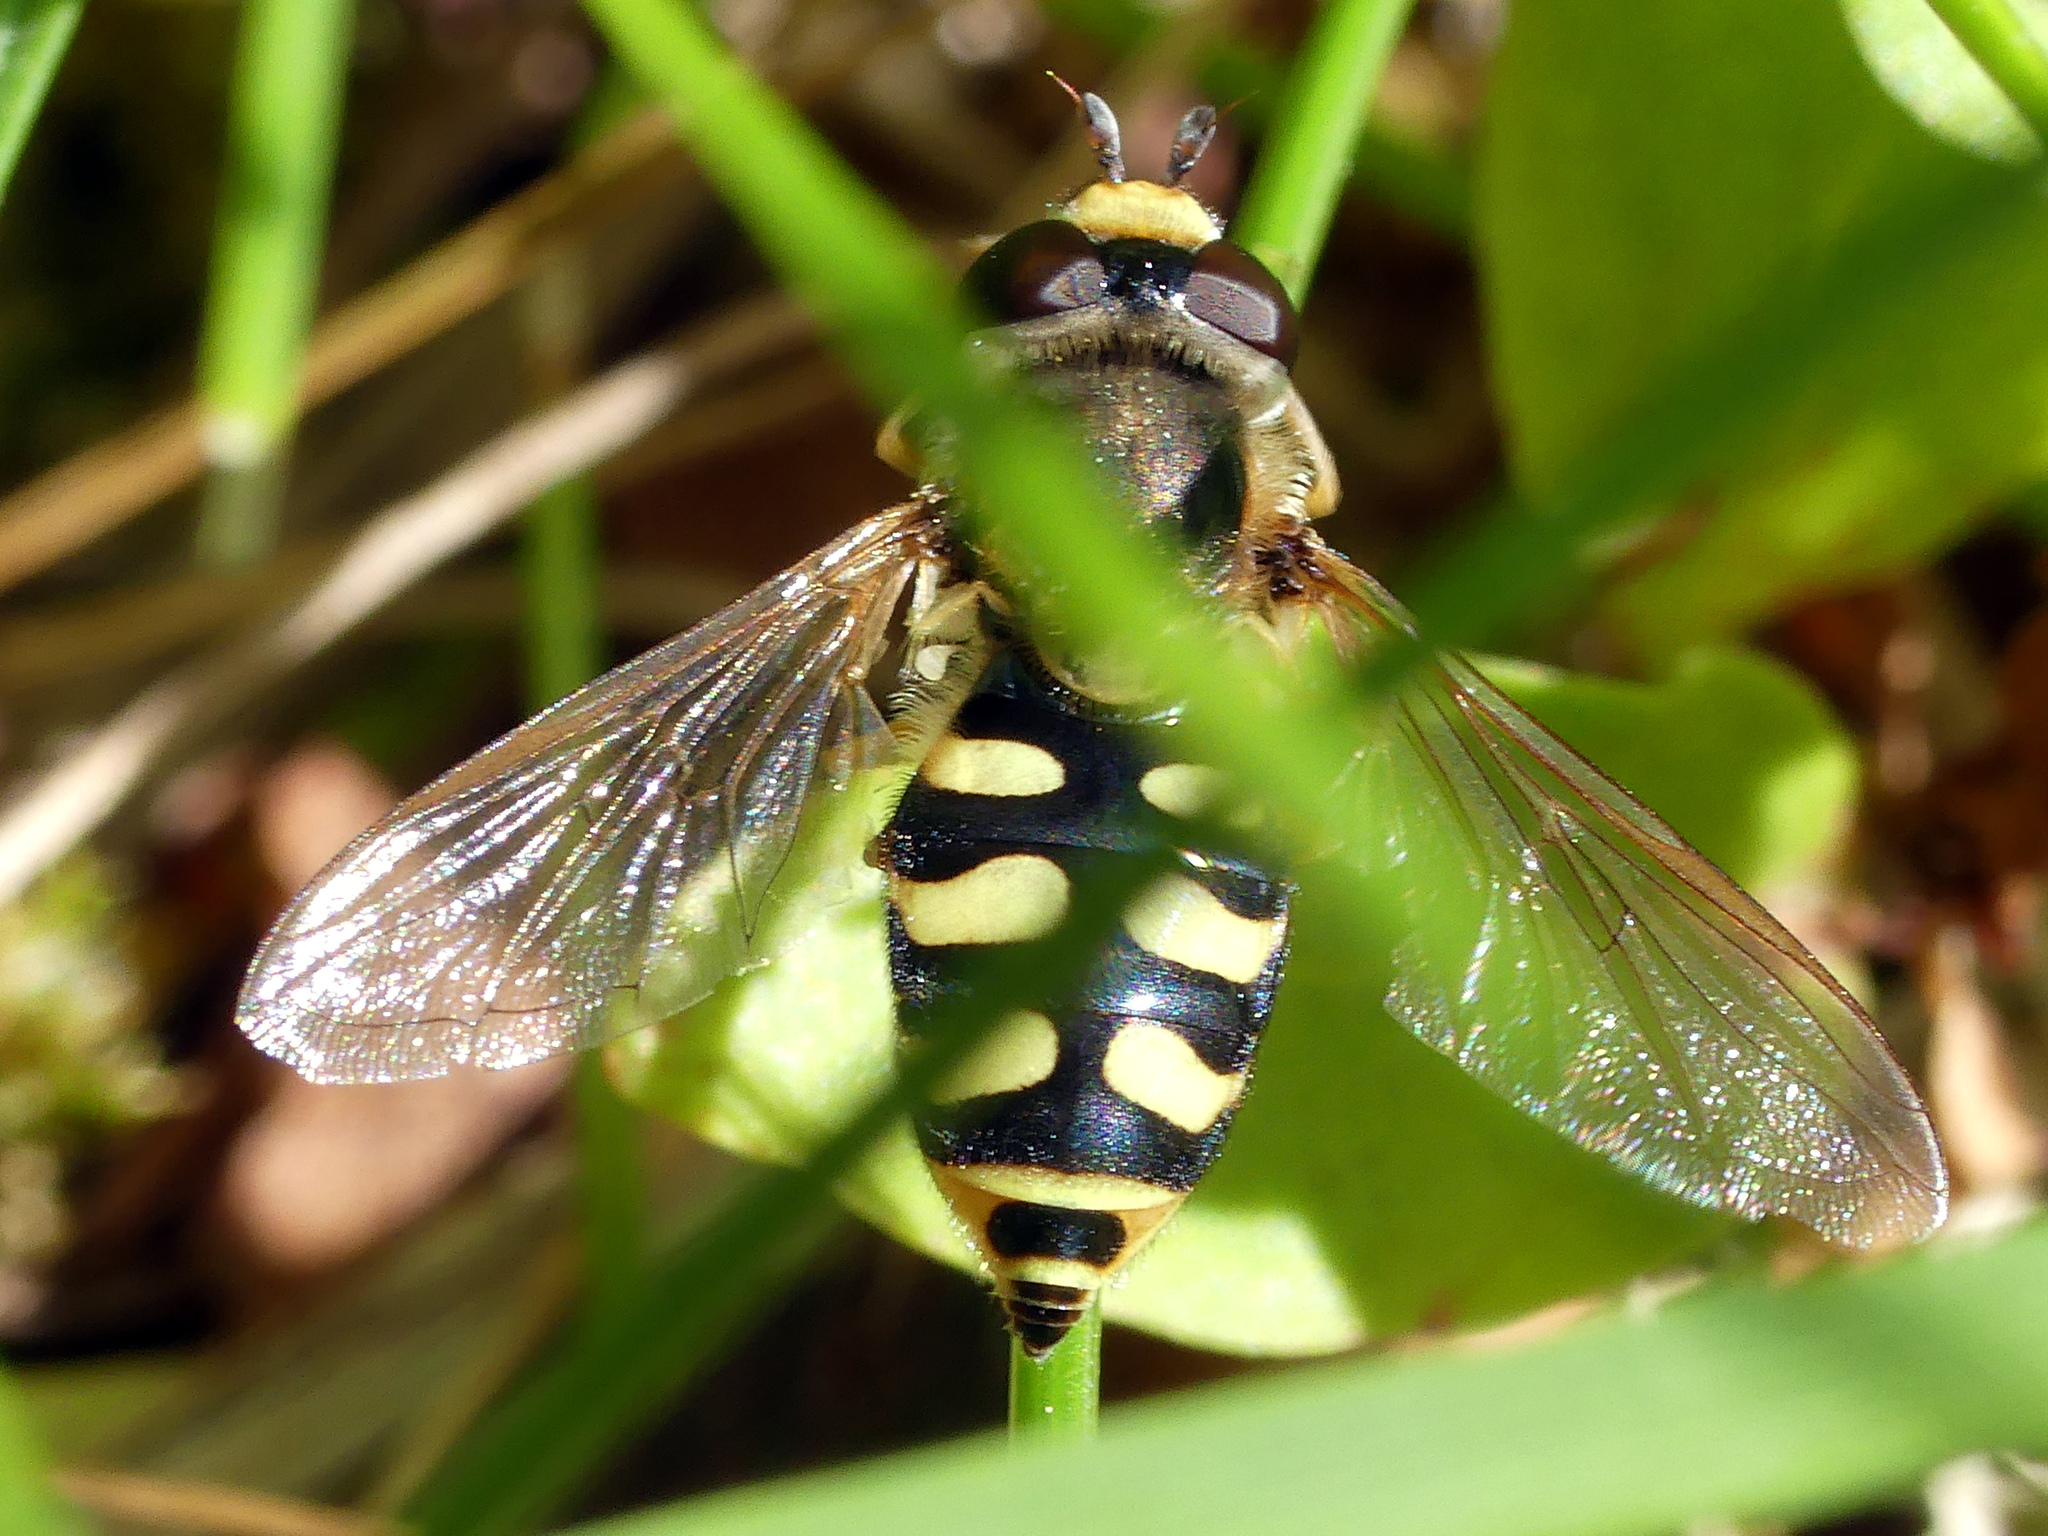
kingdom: Animalia
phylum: Arthropoda
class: Insecta
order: Diptera
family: Syrphidae
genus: Eupeodes
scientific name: Eupeodes corollae
